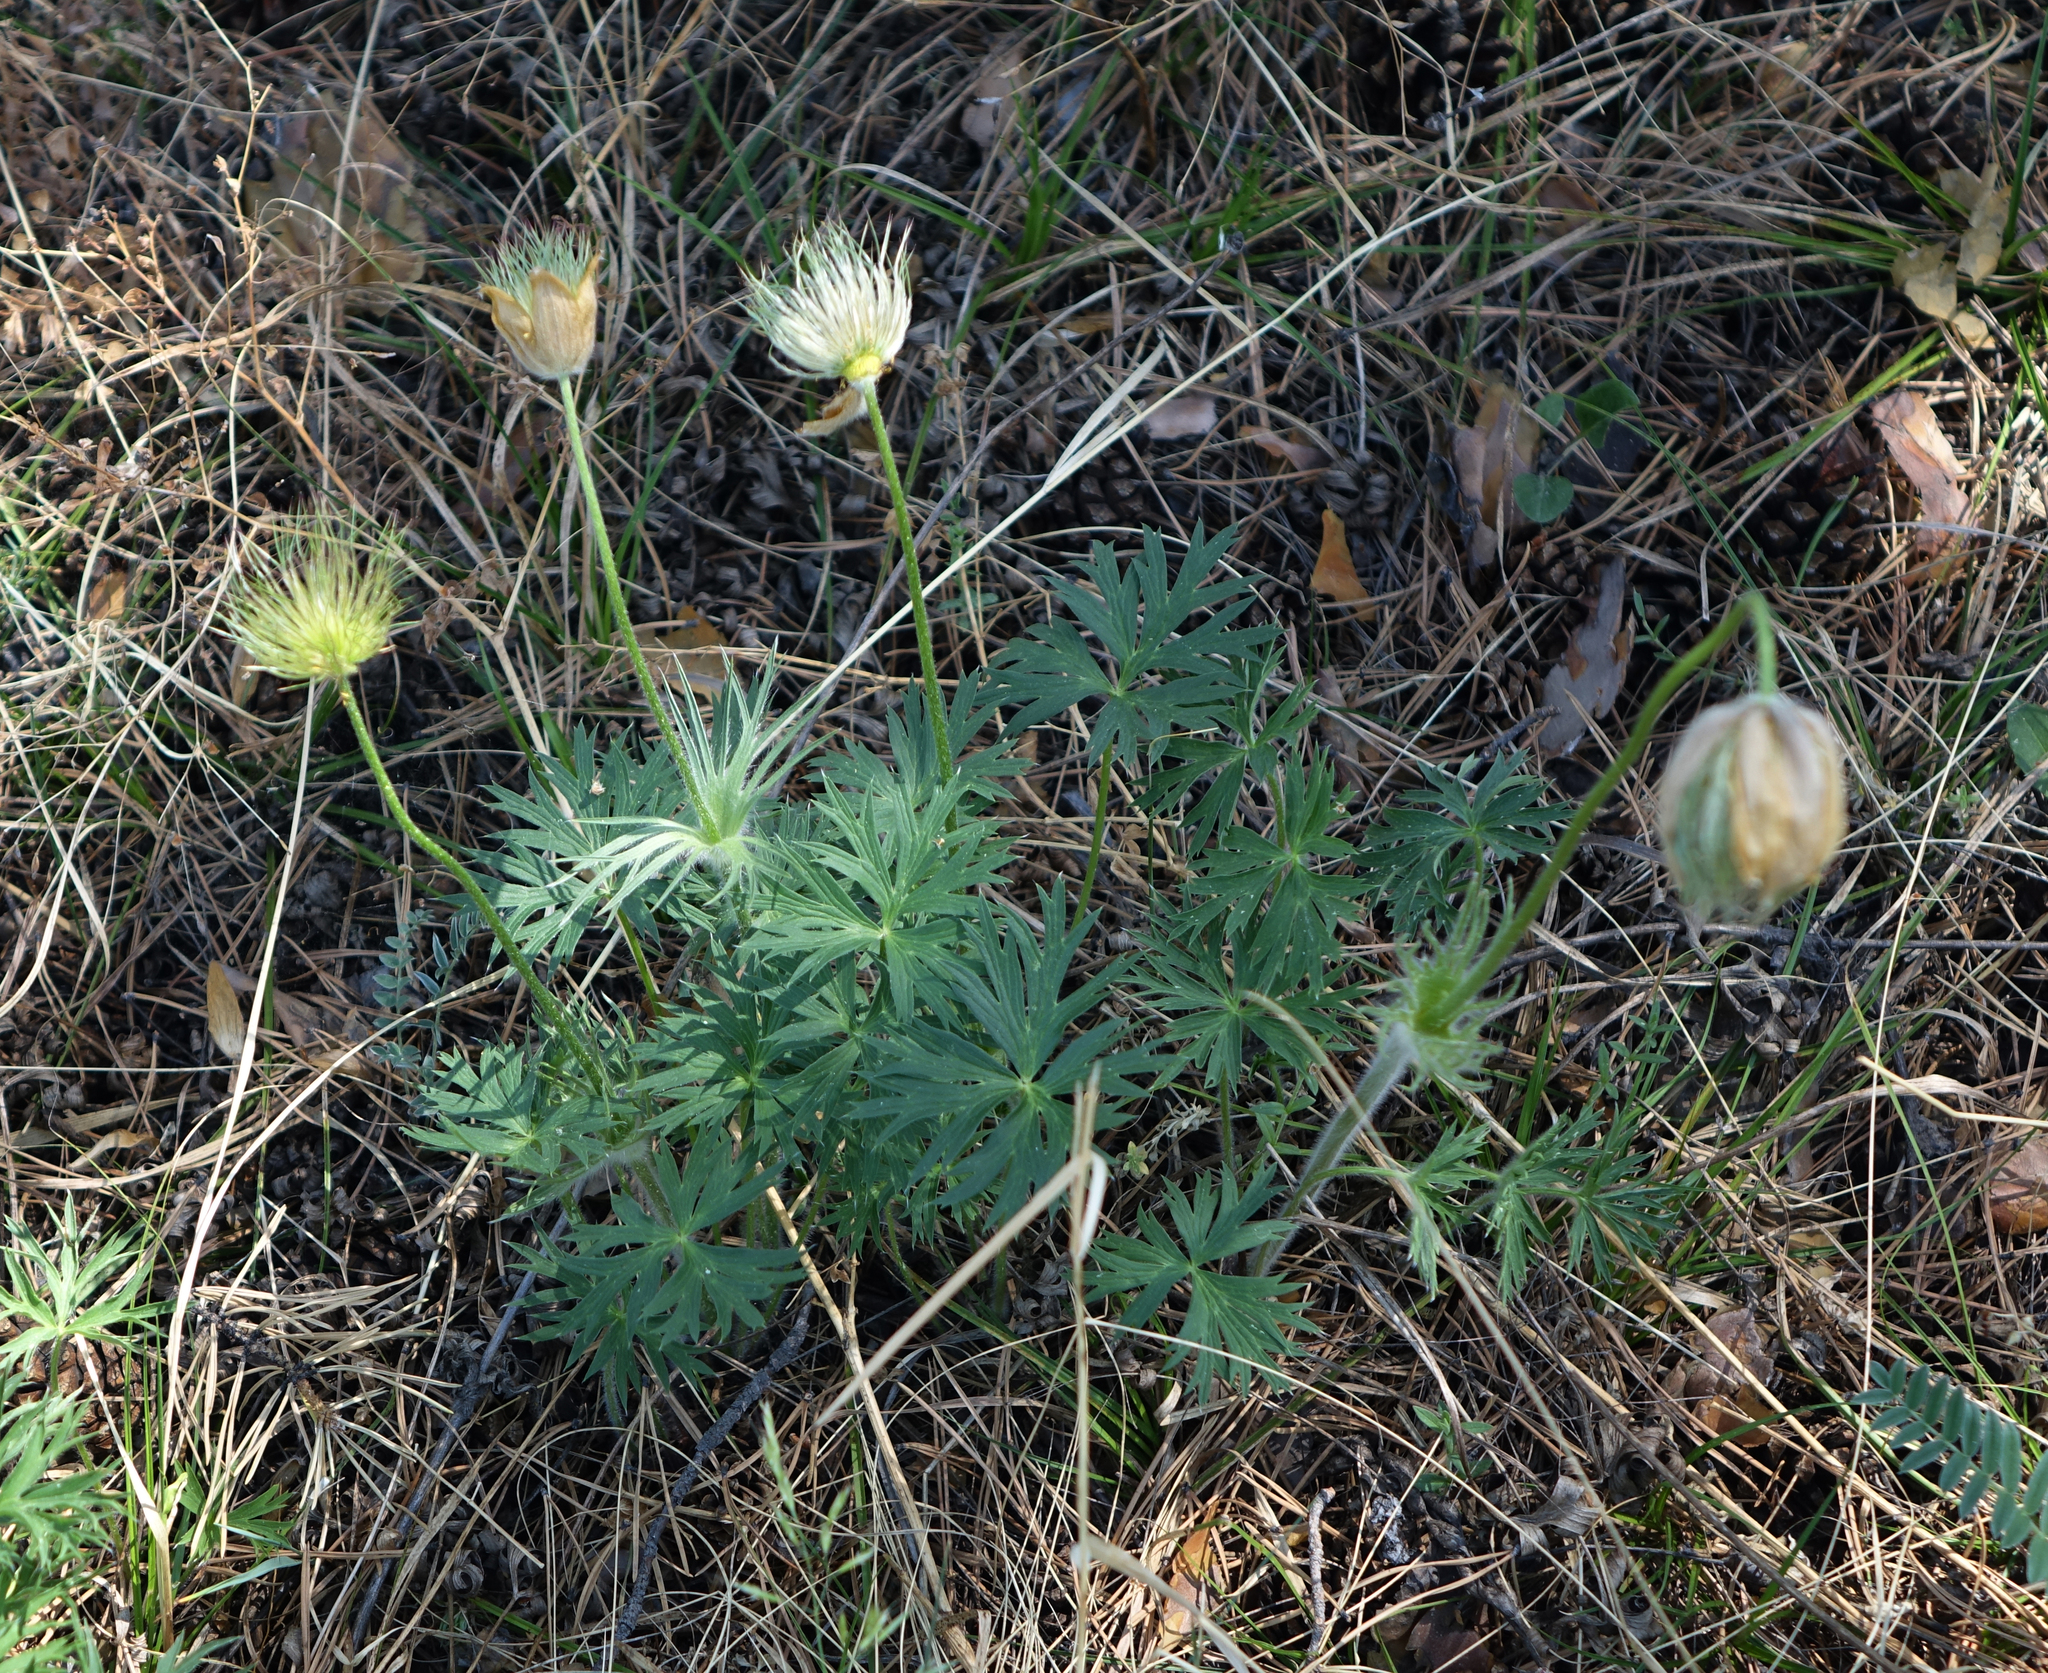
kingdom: Plantae
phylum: Tracheophyta
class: Magnoliopsida
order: Ranunculales
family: Ranunculaceae
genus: Pulsatilla
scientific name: Pulsatilla patens
